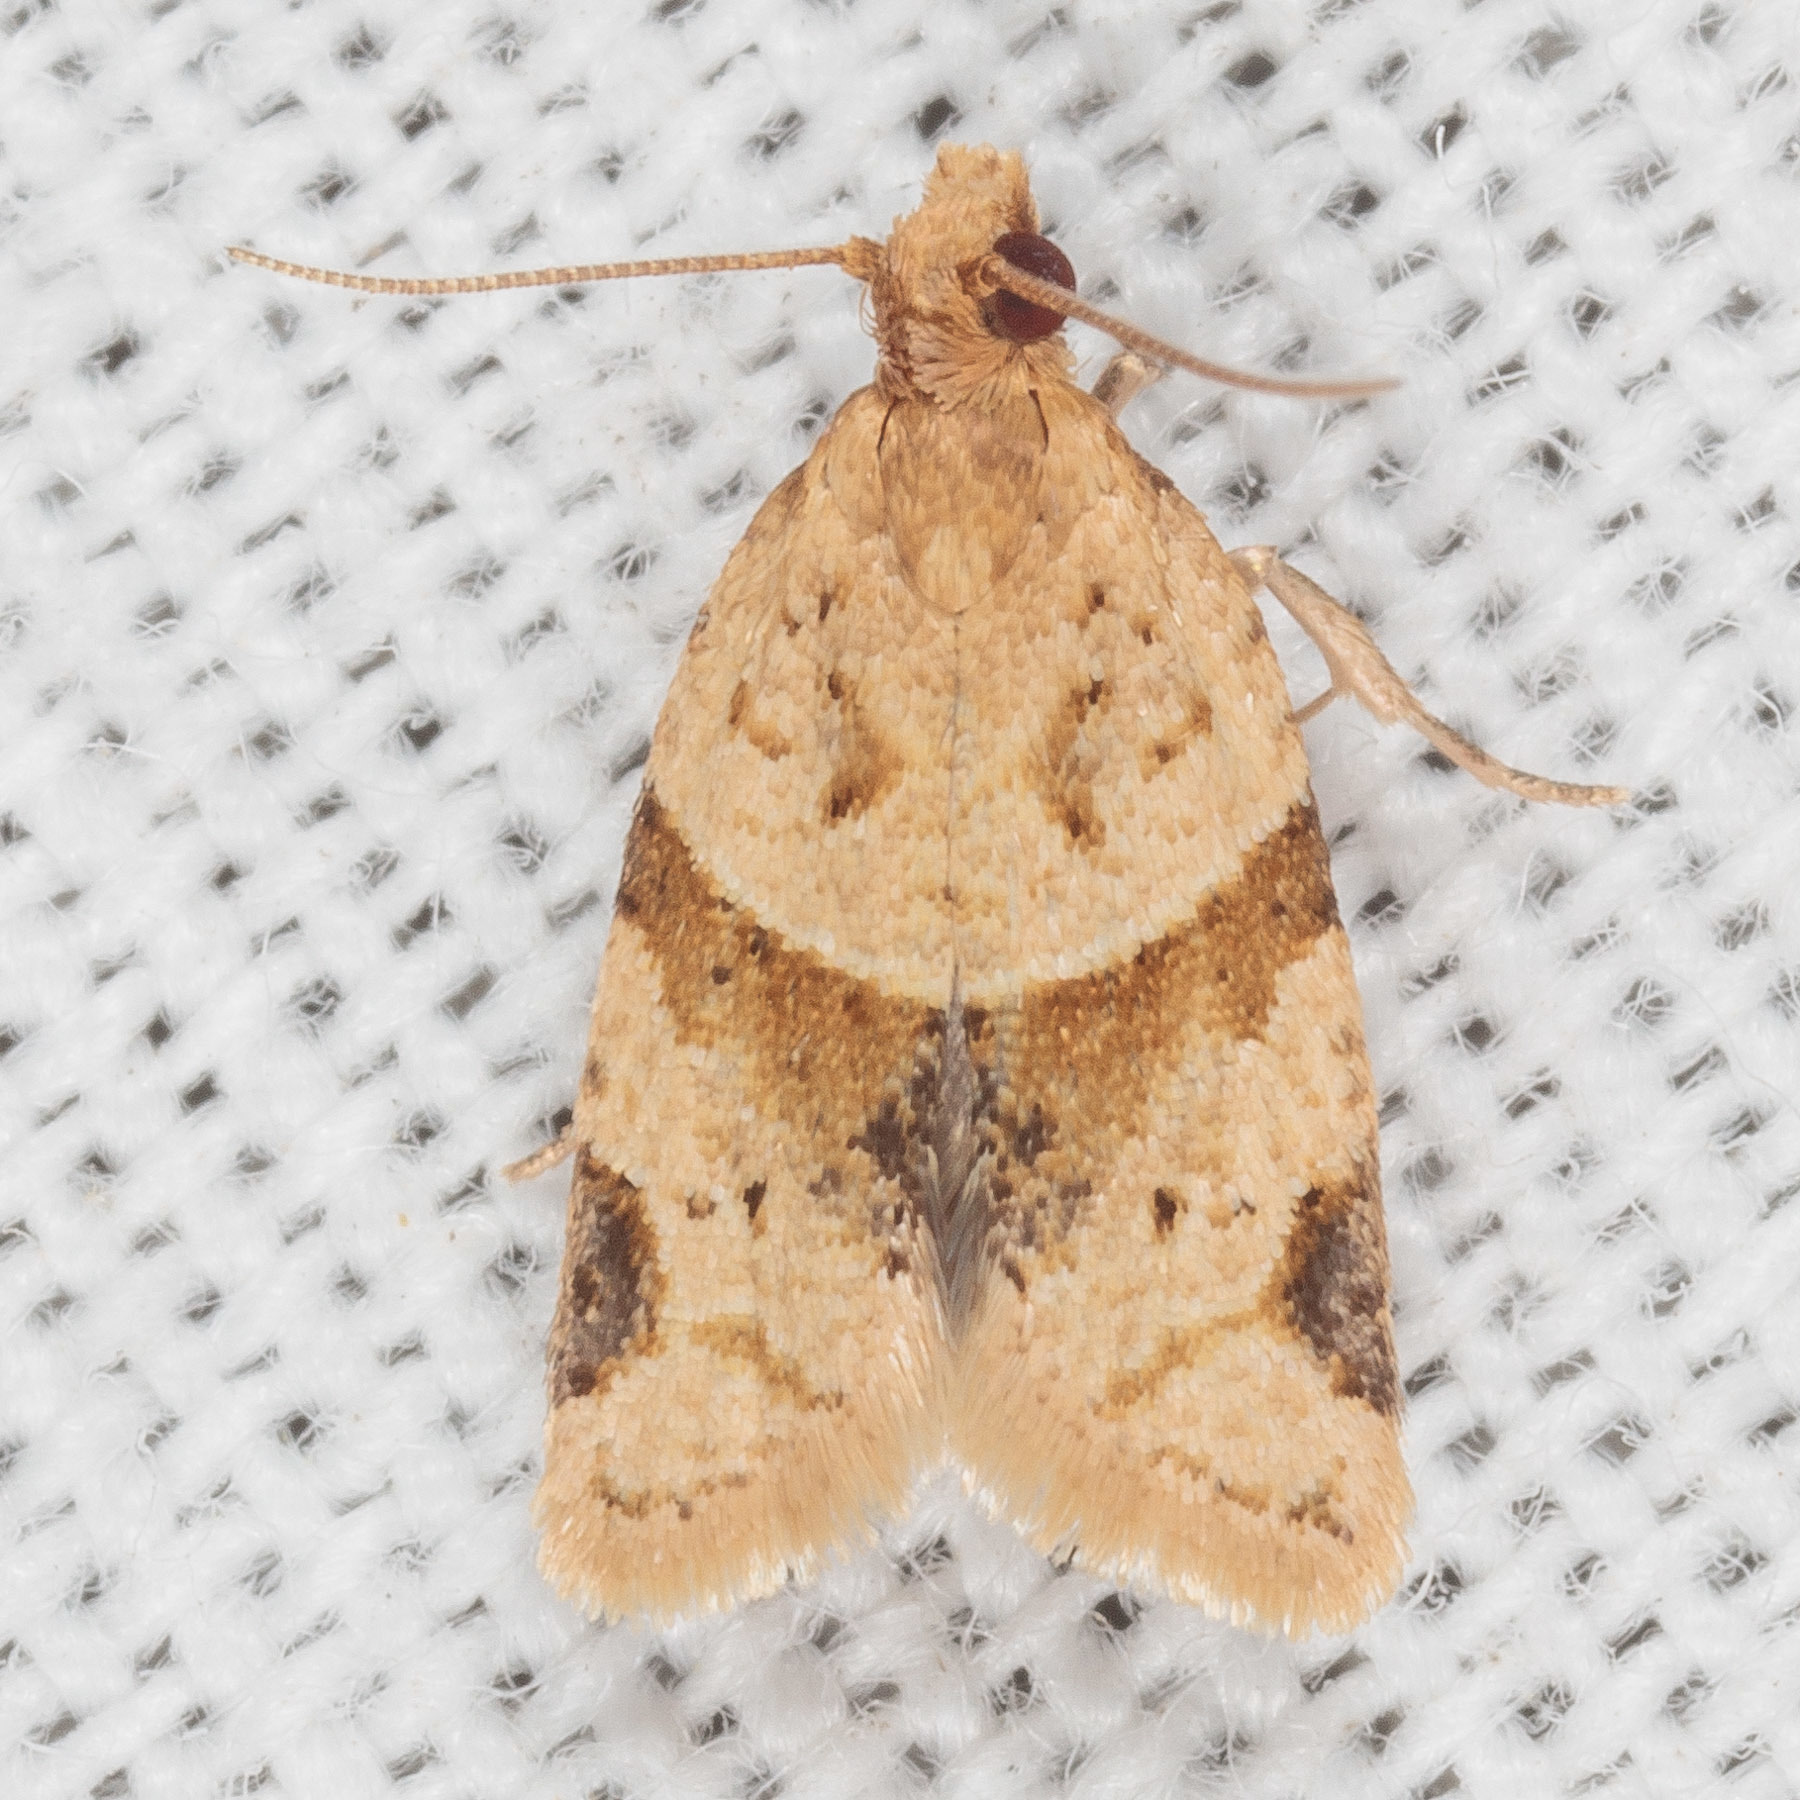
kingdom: Animalia
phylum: Arthropoda
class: Insecta
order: Lepidoptera
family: Tortricidae
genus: Clepsis
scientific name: Clepsis peritana
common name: Garden tortrix
